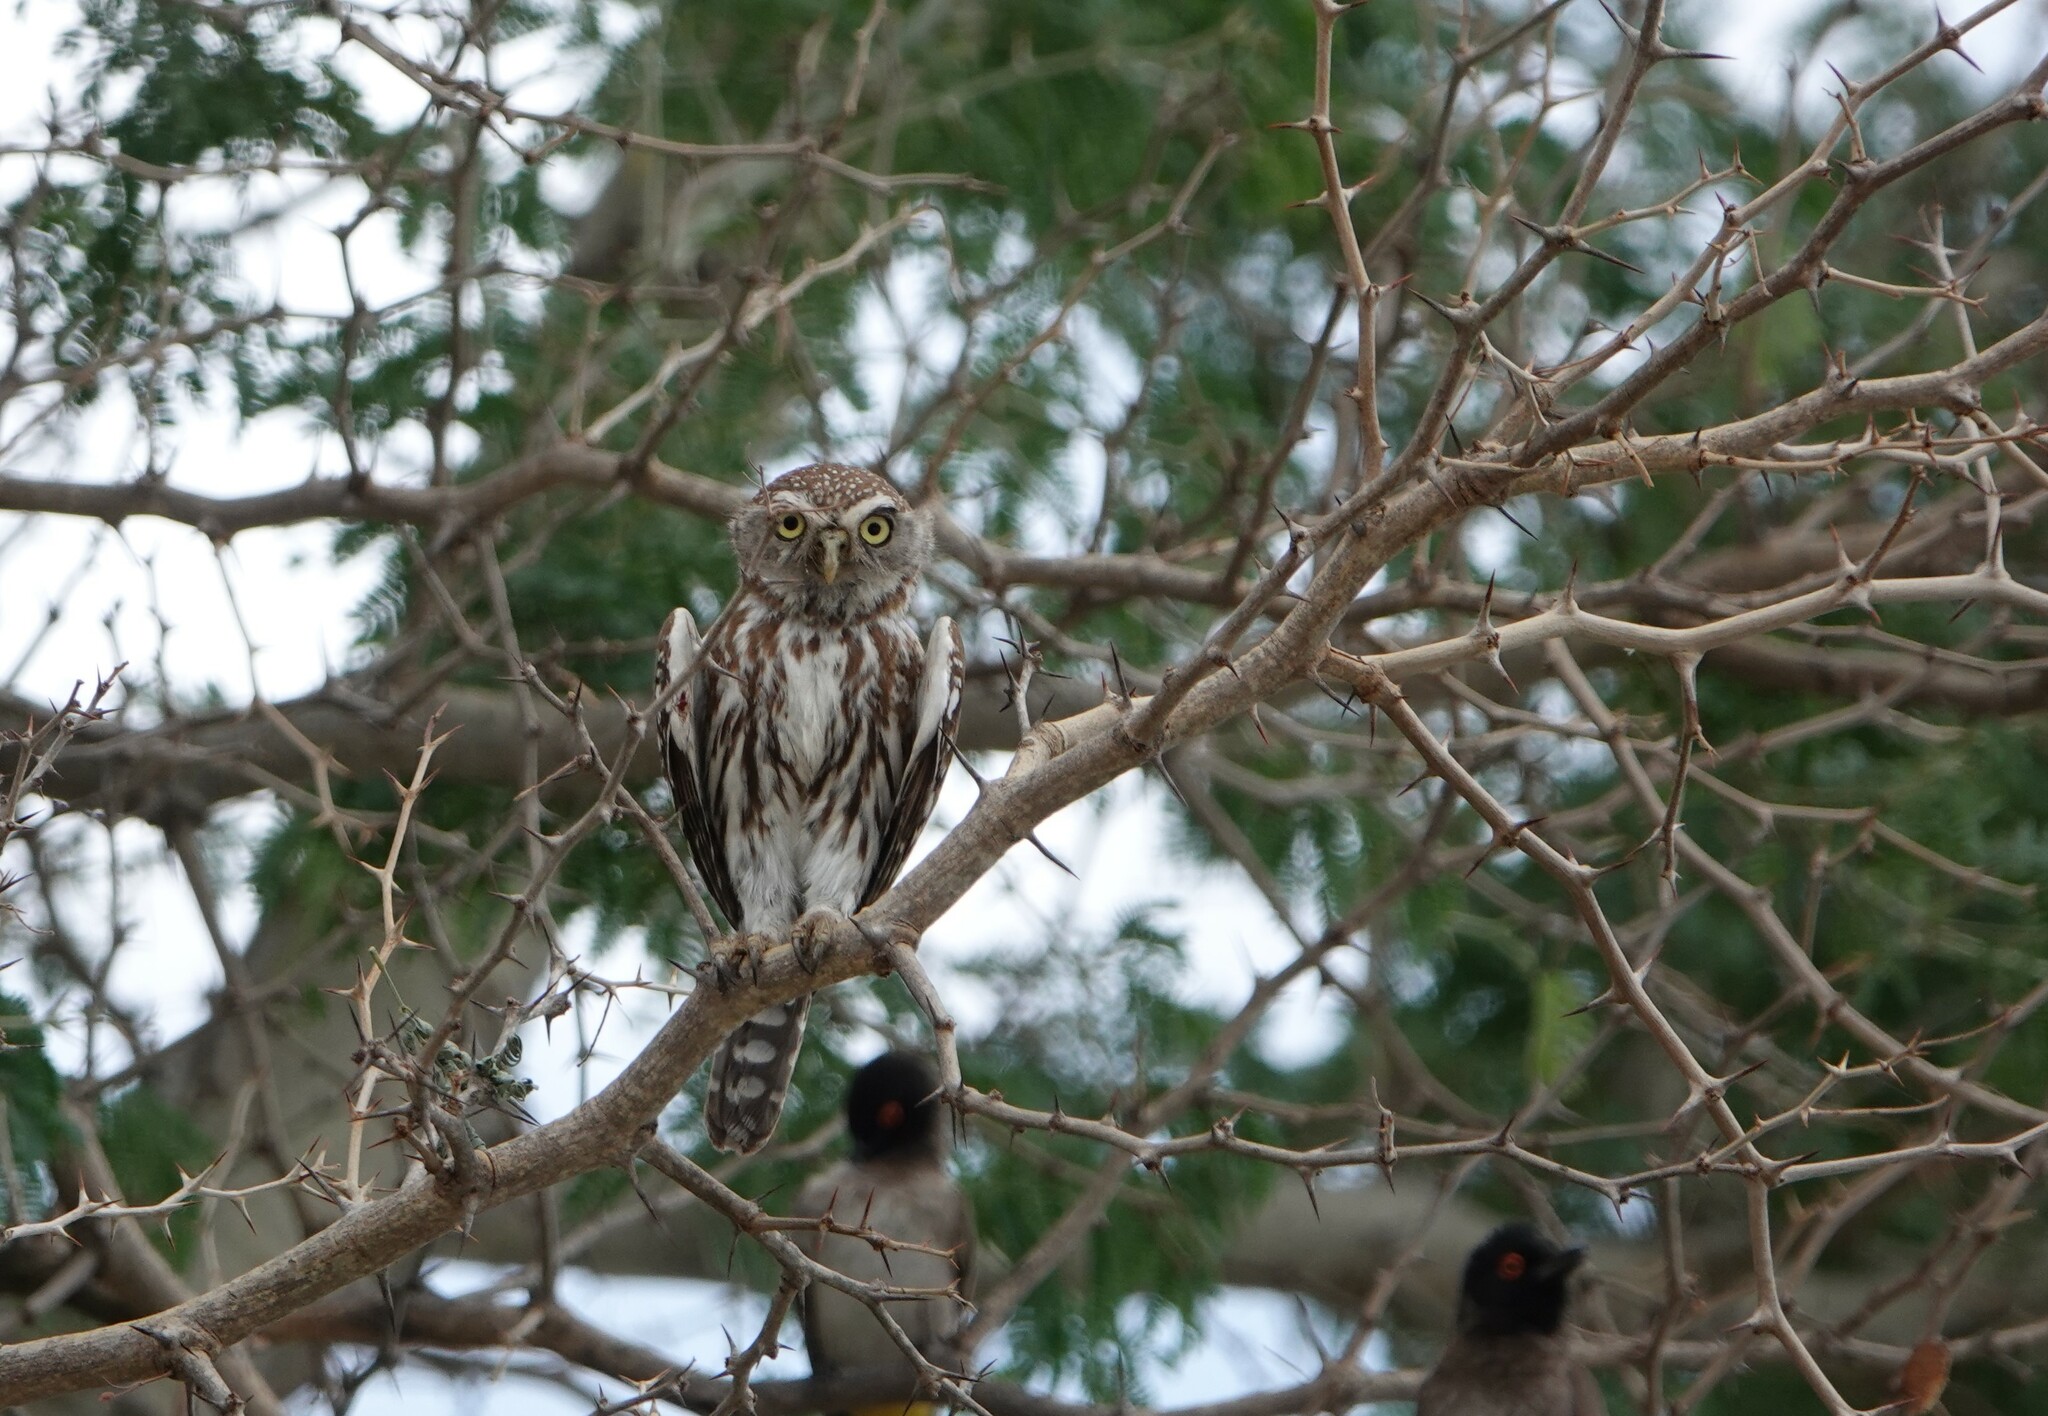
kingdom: Animalia
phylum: Chordata
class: Aves
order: Strigiformes
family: Strigidae
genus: Glaucidium
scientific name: Glaucidium perlatum
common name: Pearl-spotted owlet
